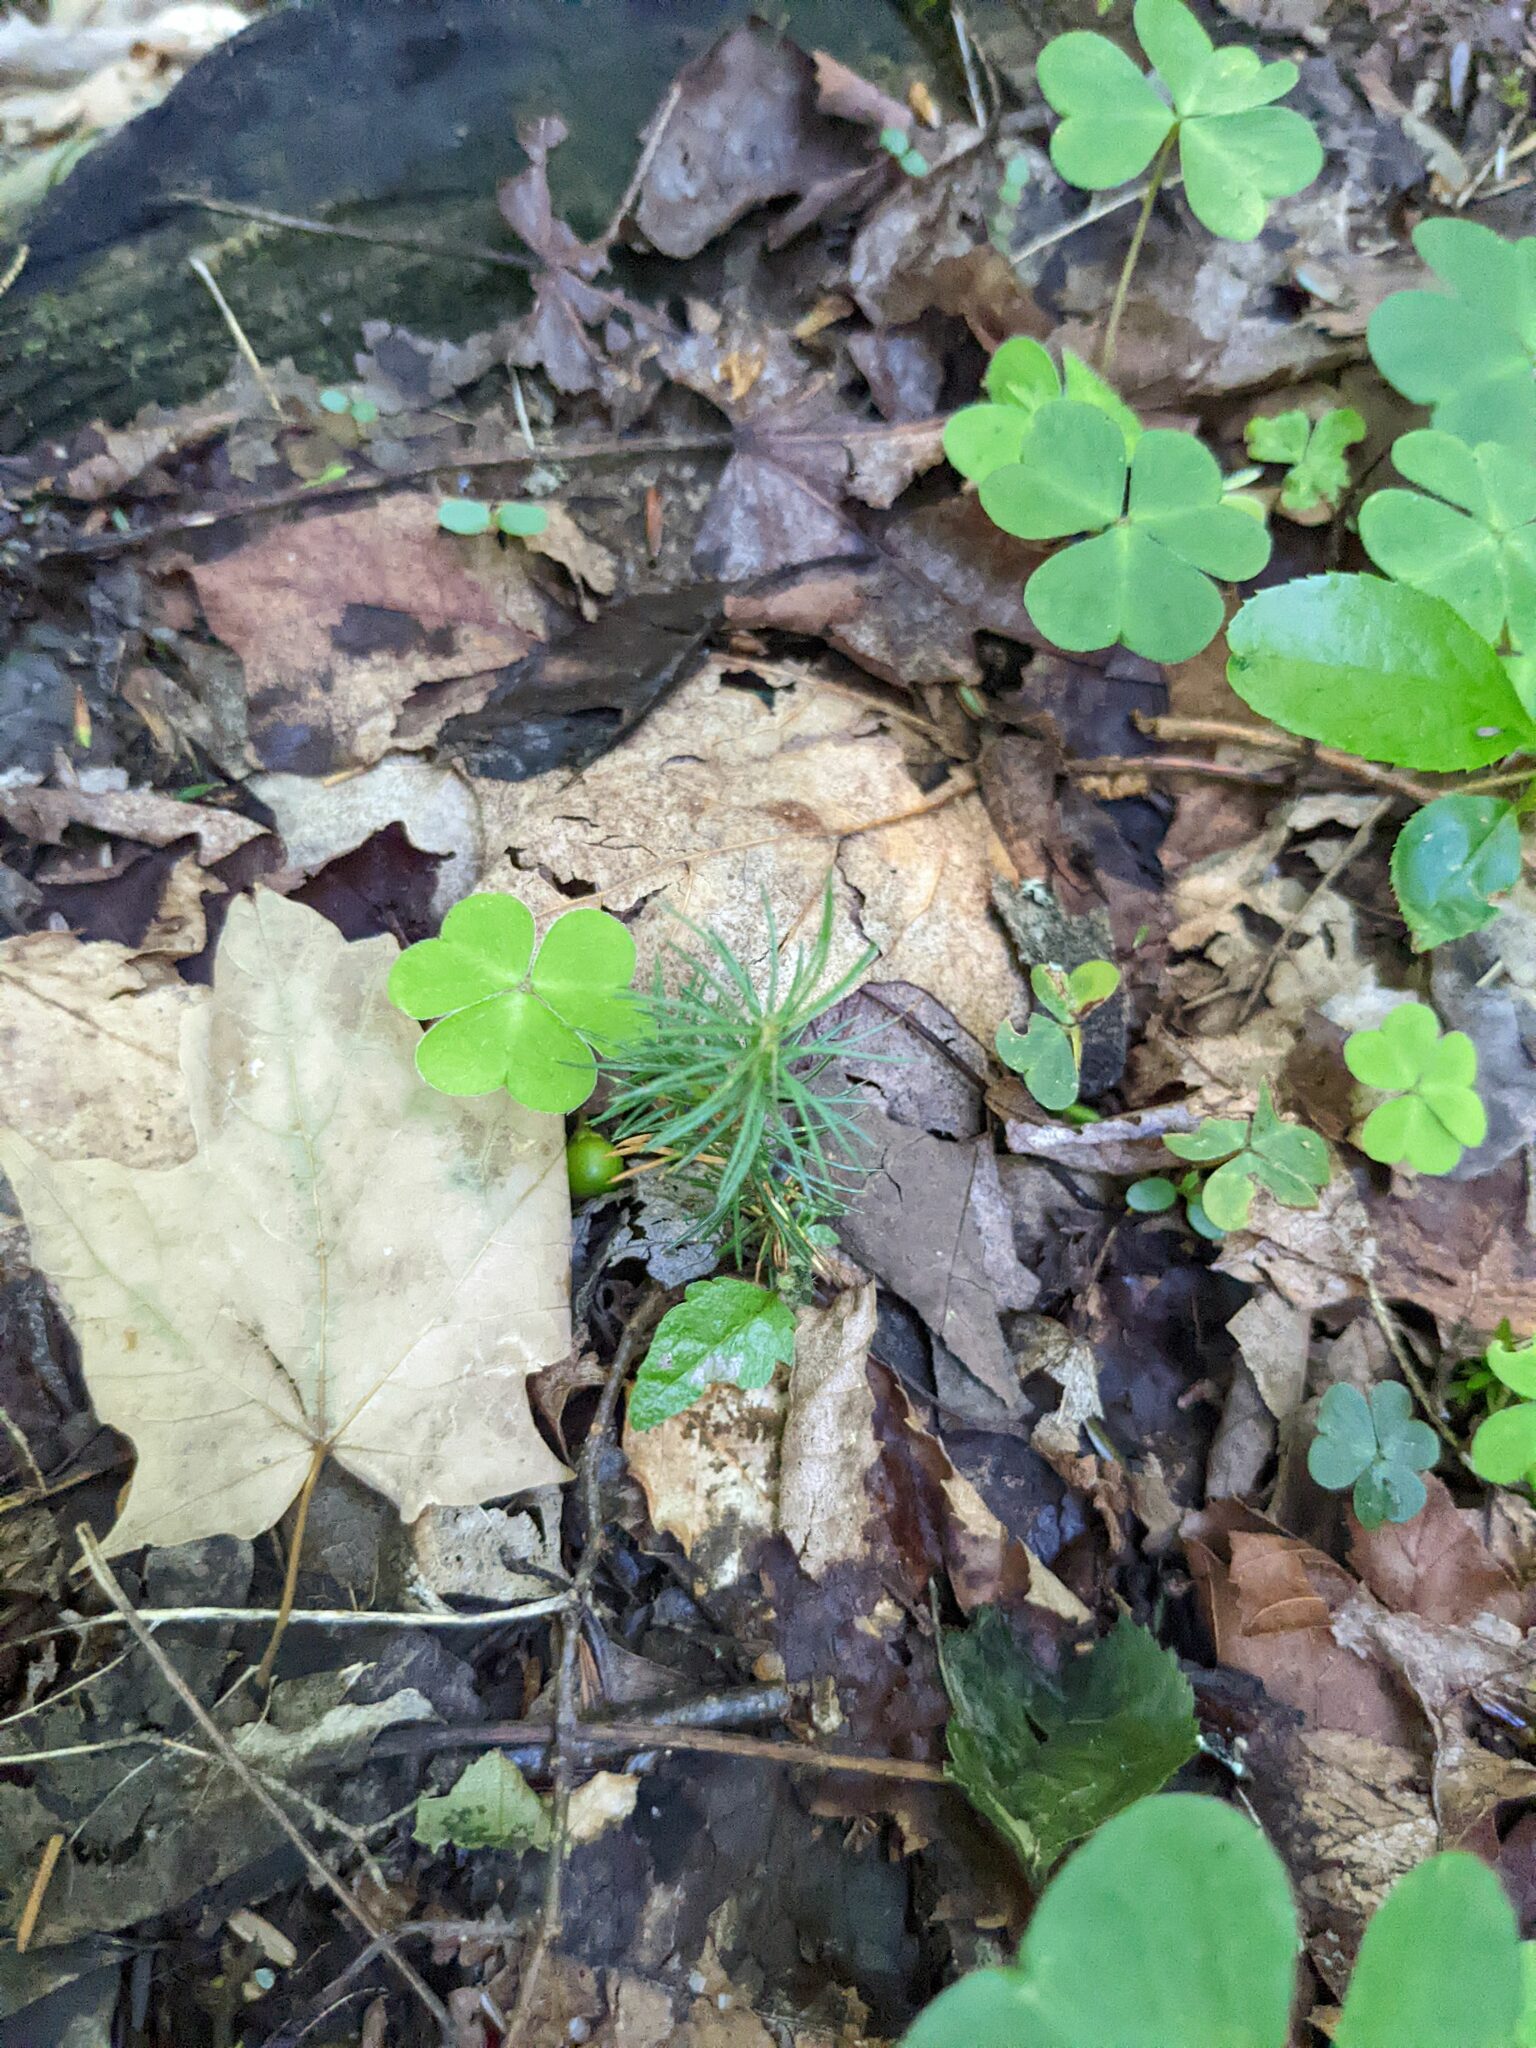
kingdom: Plantae
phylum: Tracheophyta
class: Magnoliopsida
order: Oxalidales
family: Oxalidaceae
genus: Oxalis
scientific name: Oxalis montana
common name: American wood-sorrel
